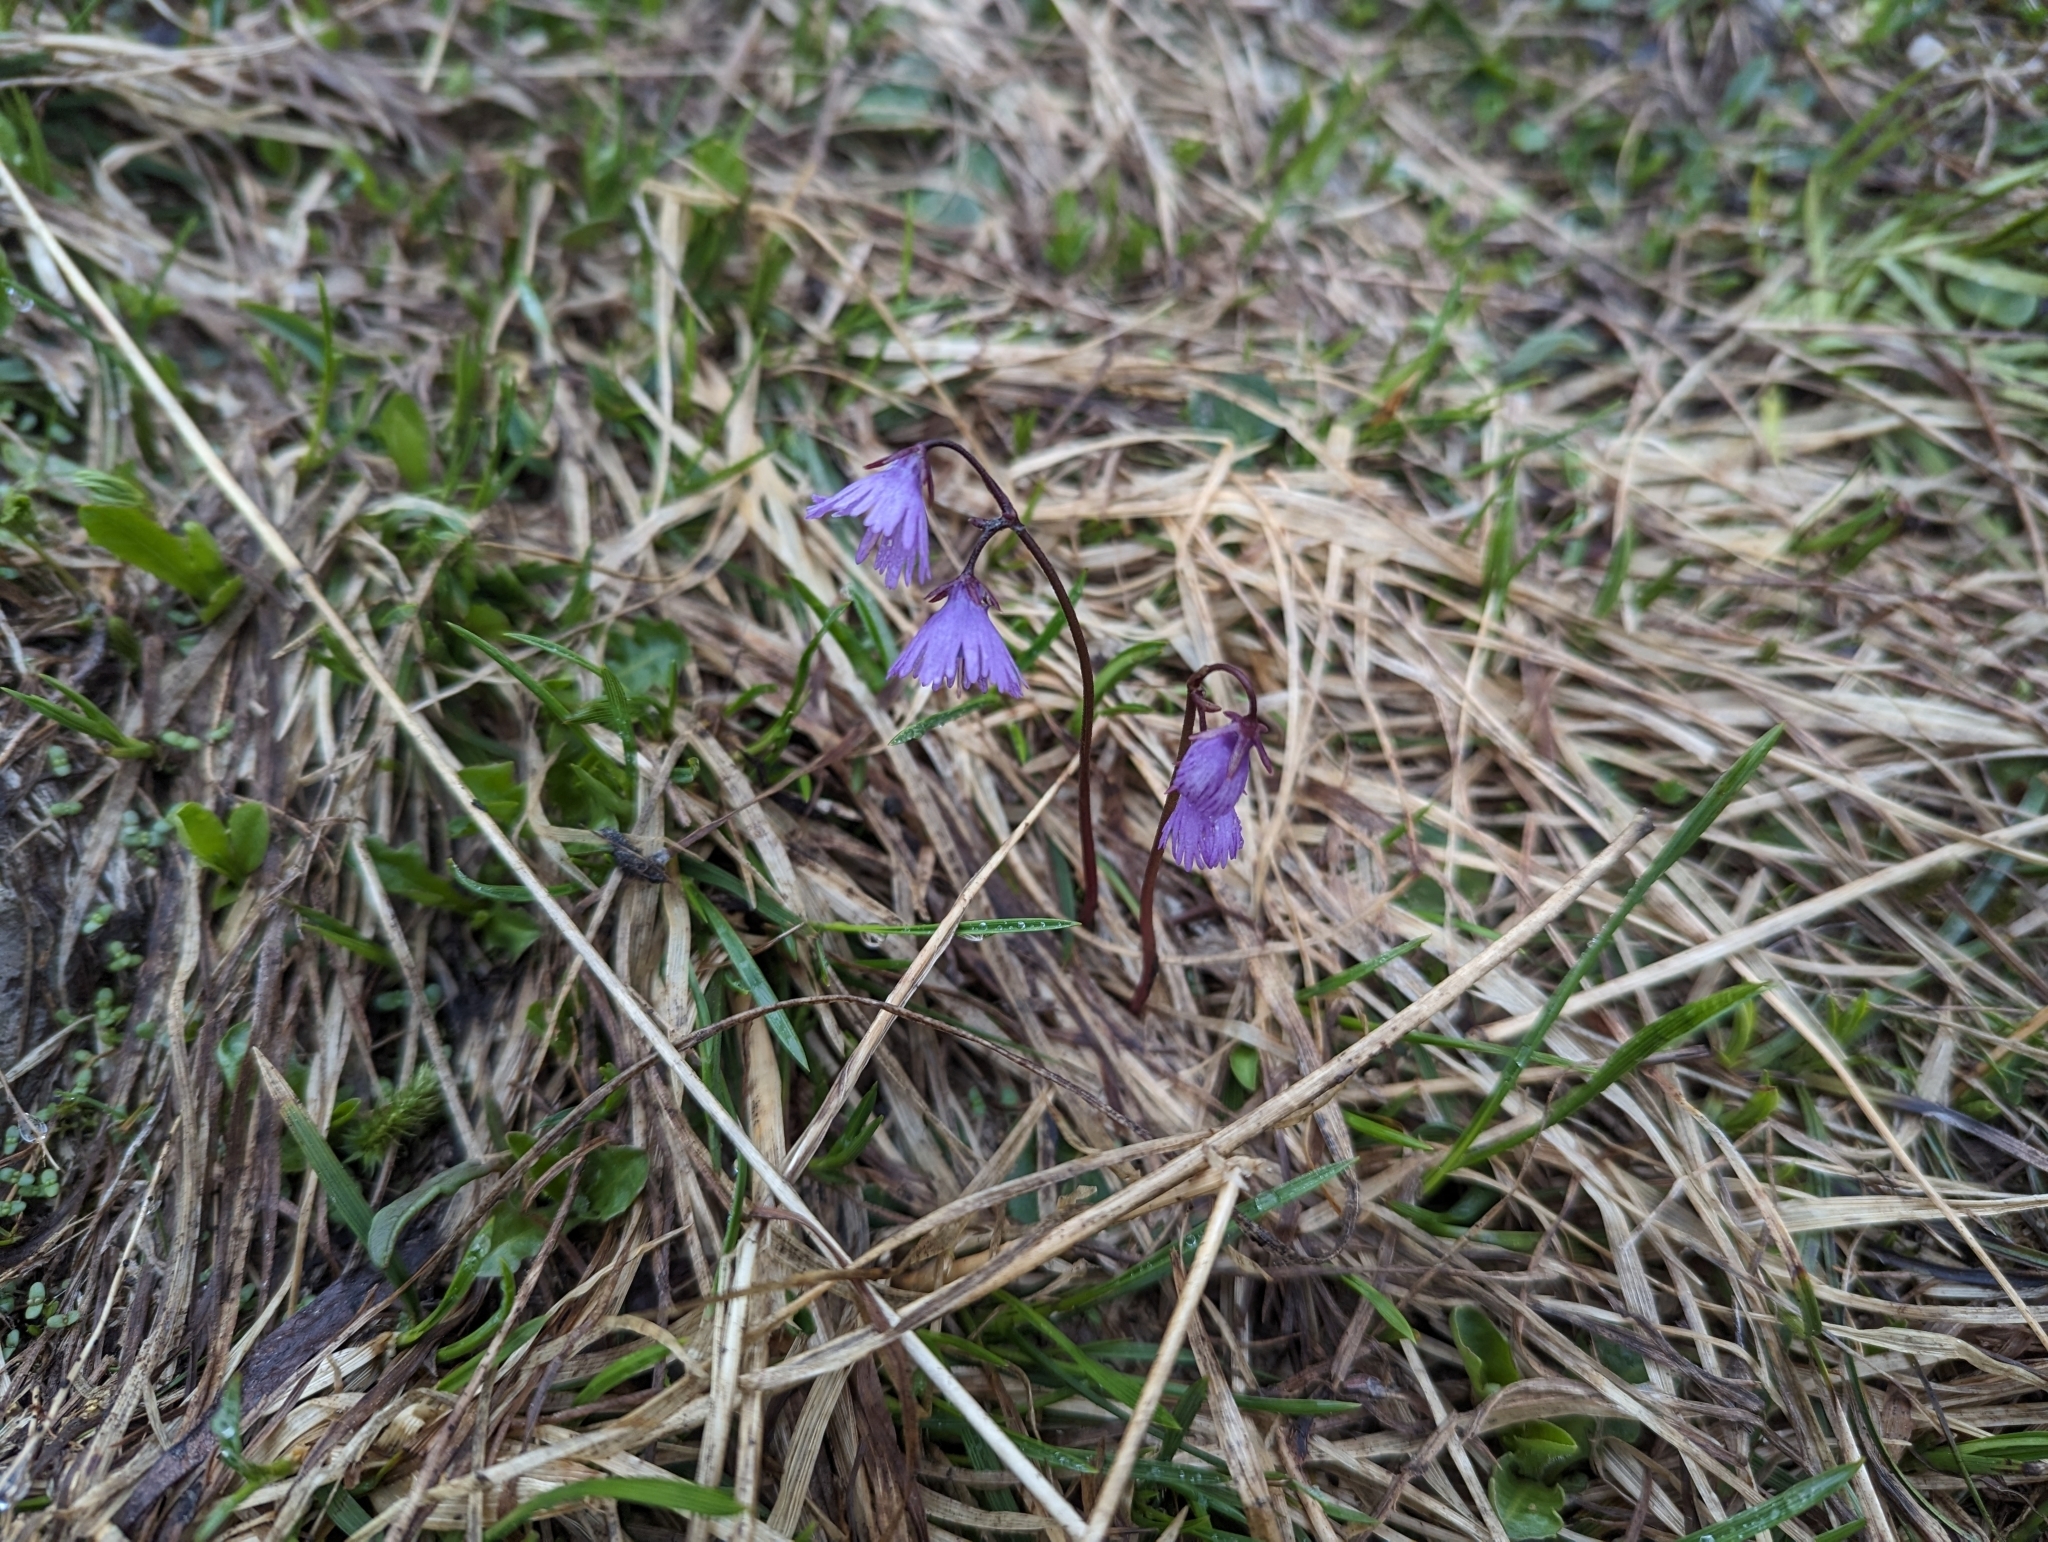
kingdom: Plantae
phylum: Tracheophyta
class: Magnoliopsida
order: Ericales
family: Primulaceae
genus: Soldanella
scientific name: Soldanella alpina
